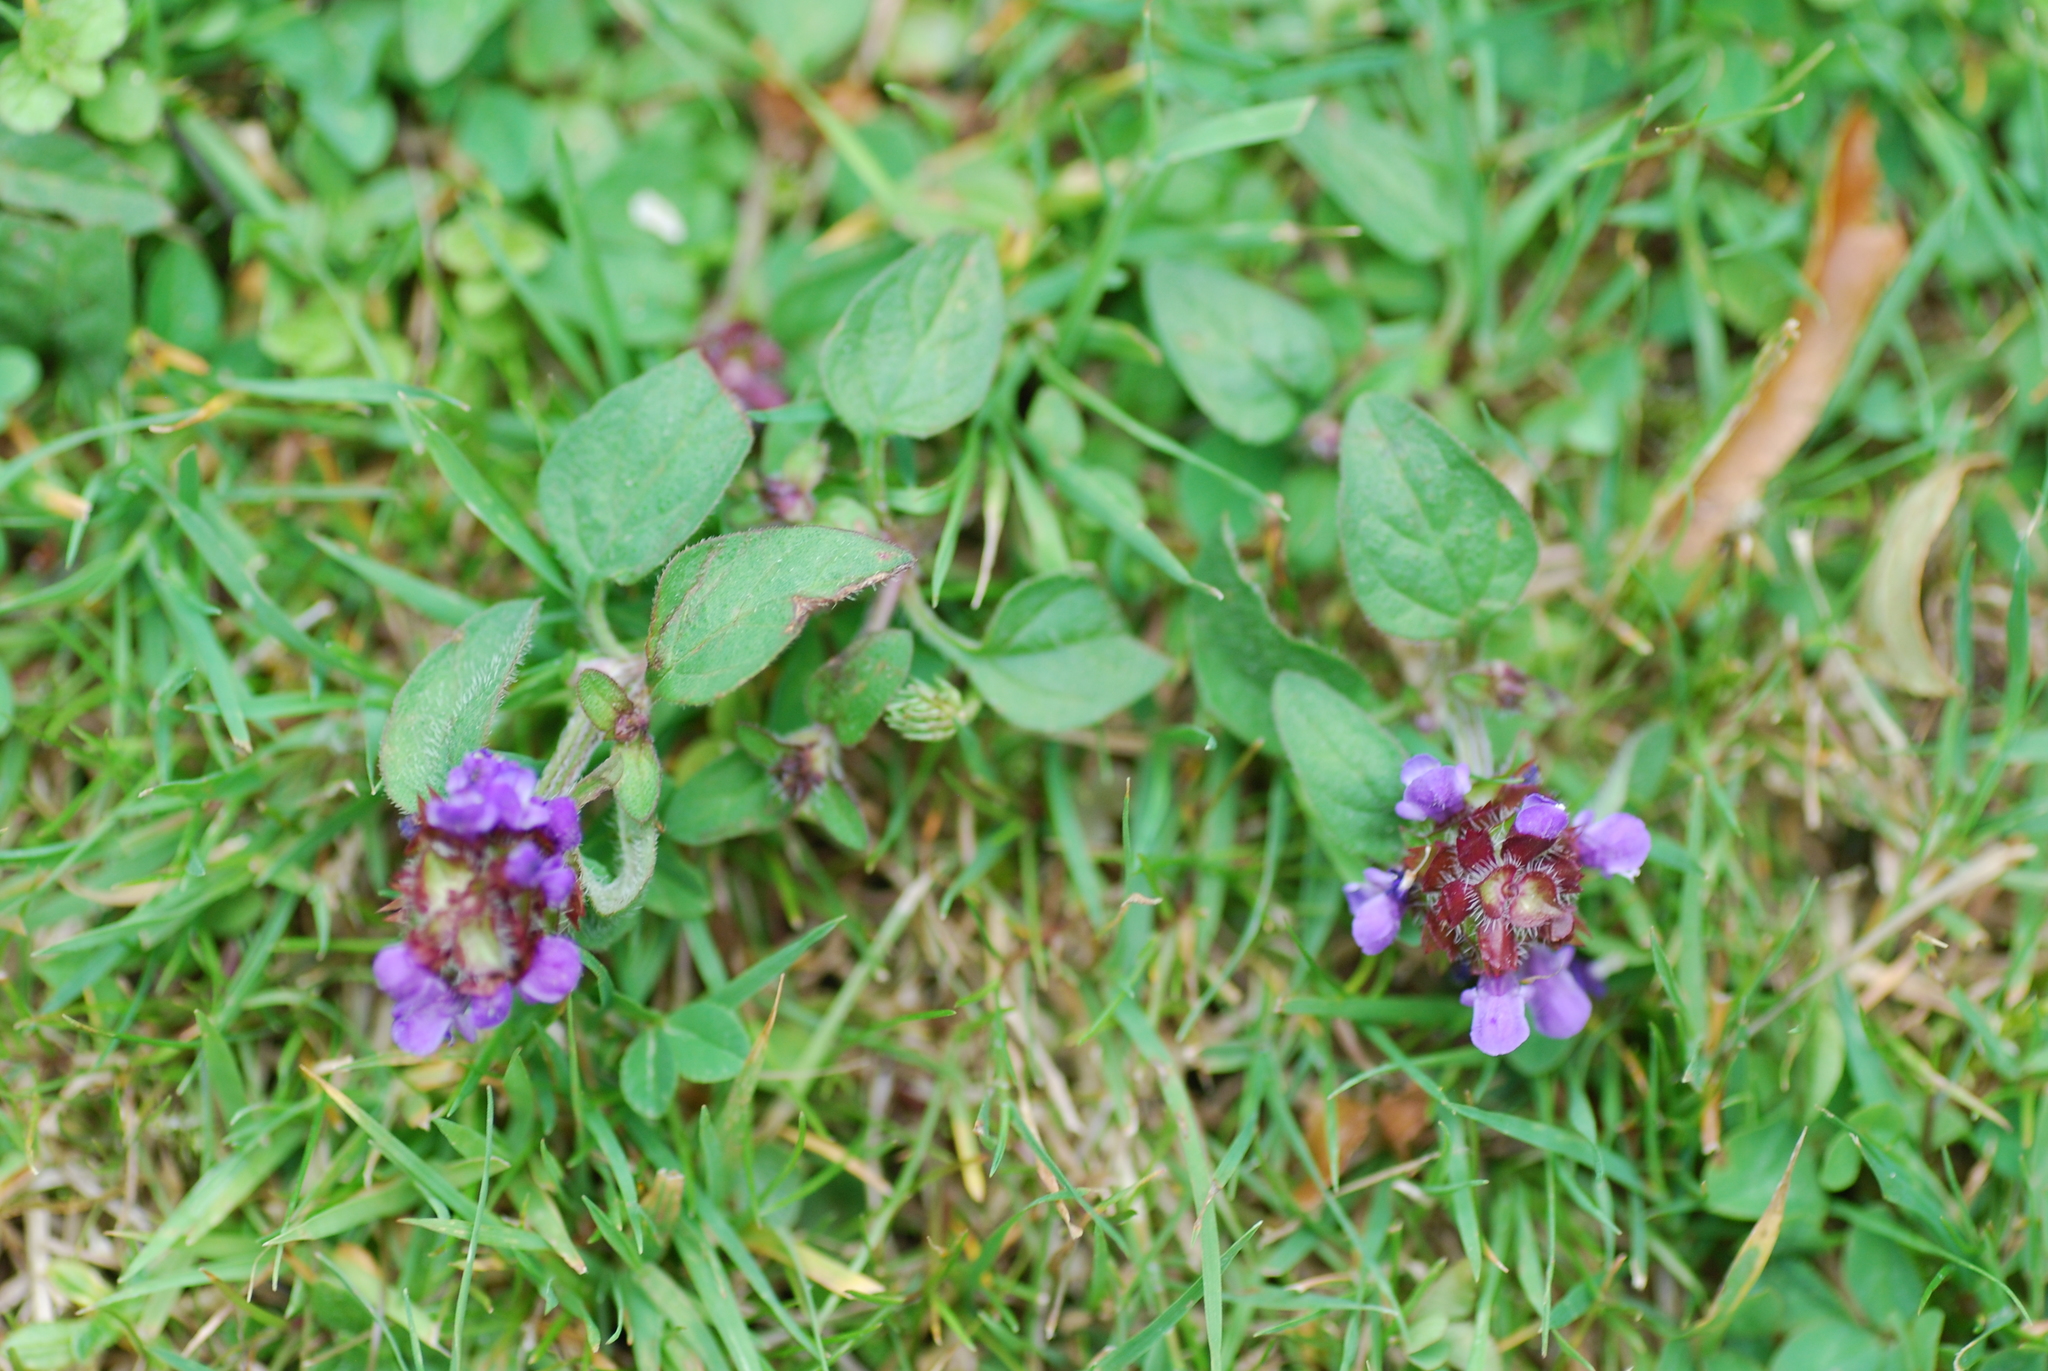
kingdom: Plantae
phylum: Tracheophyta
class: Magnoliopsida
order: Lamiales
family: Lamiaceae
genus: Prunella
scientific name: Prunella vulgaris
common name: Heal-all
